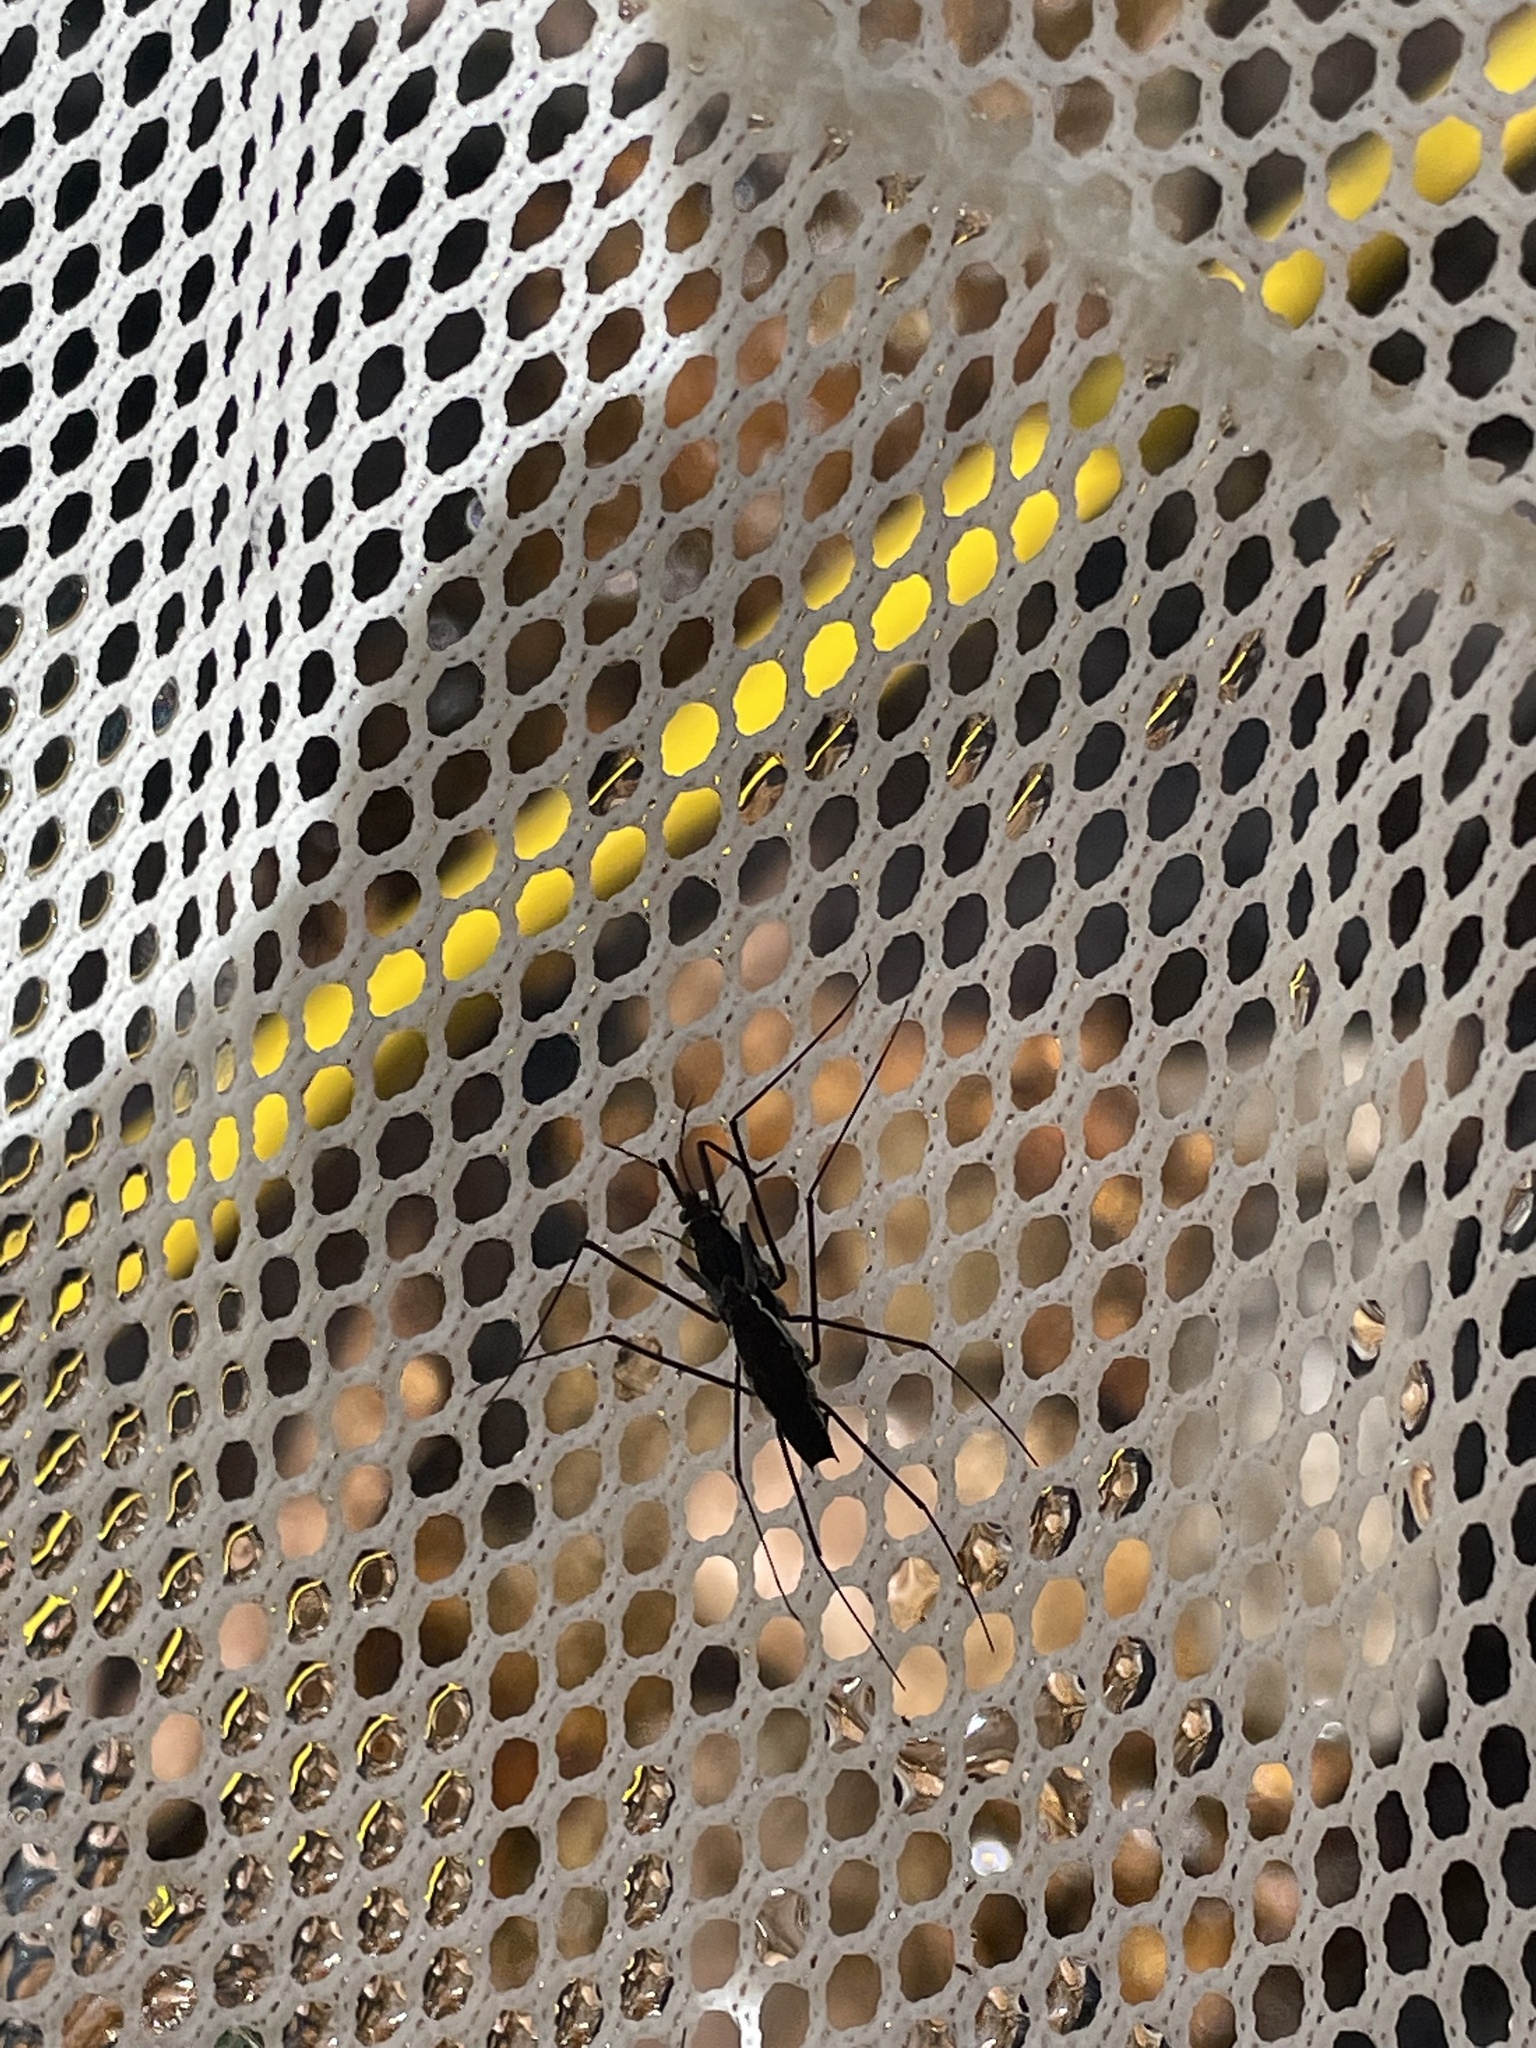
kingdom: Animalia
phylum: Arthropoda
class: Insecta
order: Hemiptera
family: Gerridae
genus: Aquarius
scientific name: Aquarius remigis
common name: Common water strider
